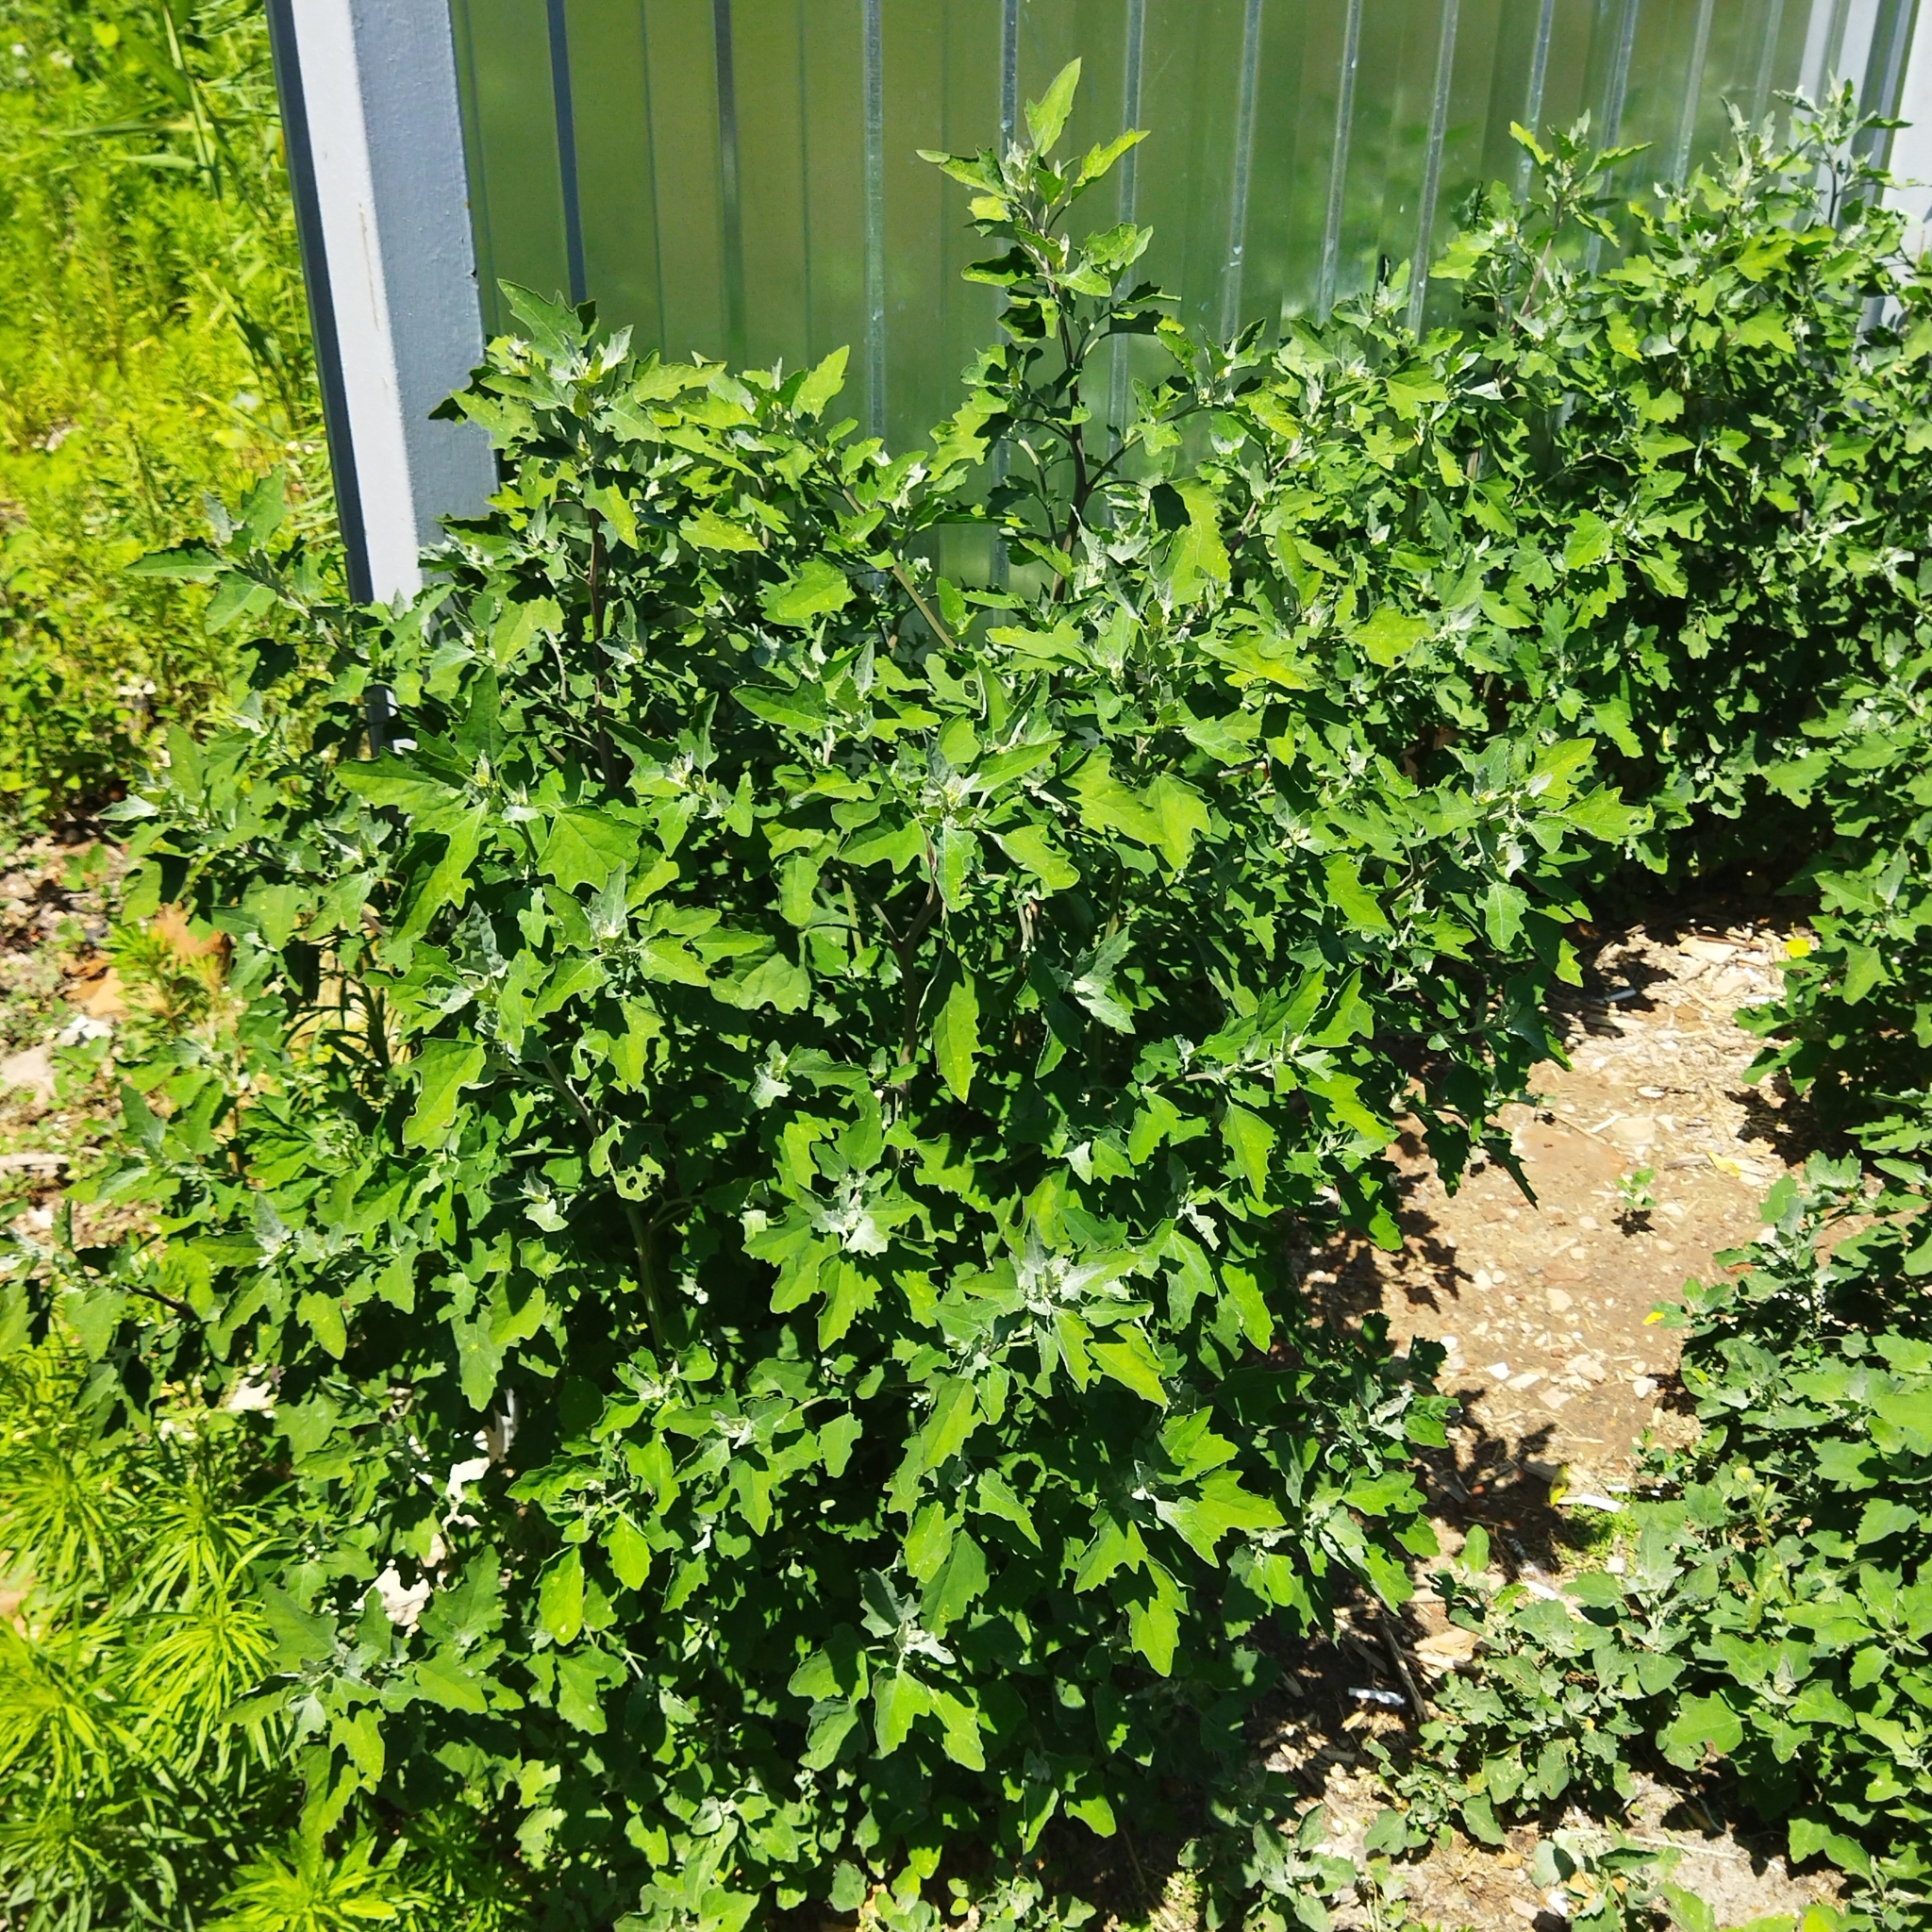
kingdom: Plantae
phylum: Tracheophyta
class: Magnoliopsida
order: Caryophyllales
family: Amaranthaceae
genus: Chenopodium
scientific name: Chenopodium album
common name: Fat-hen
